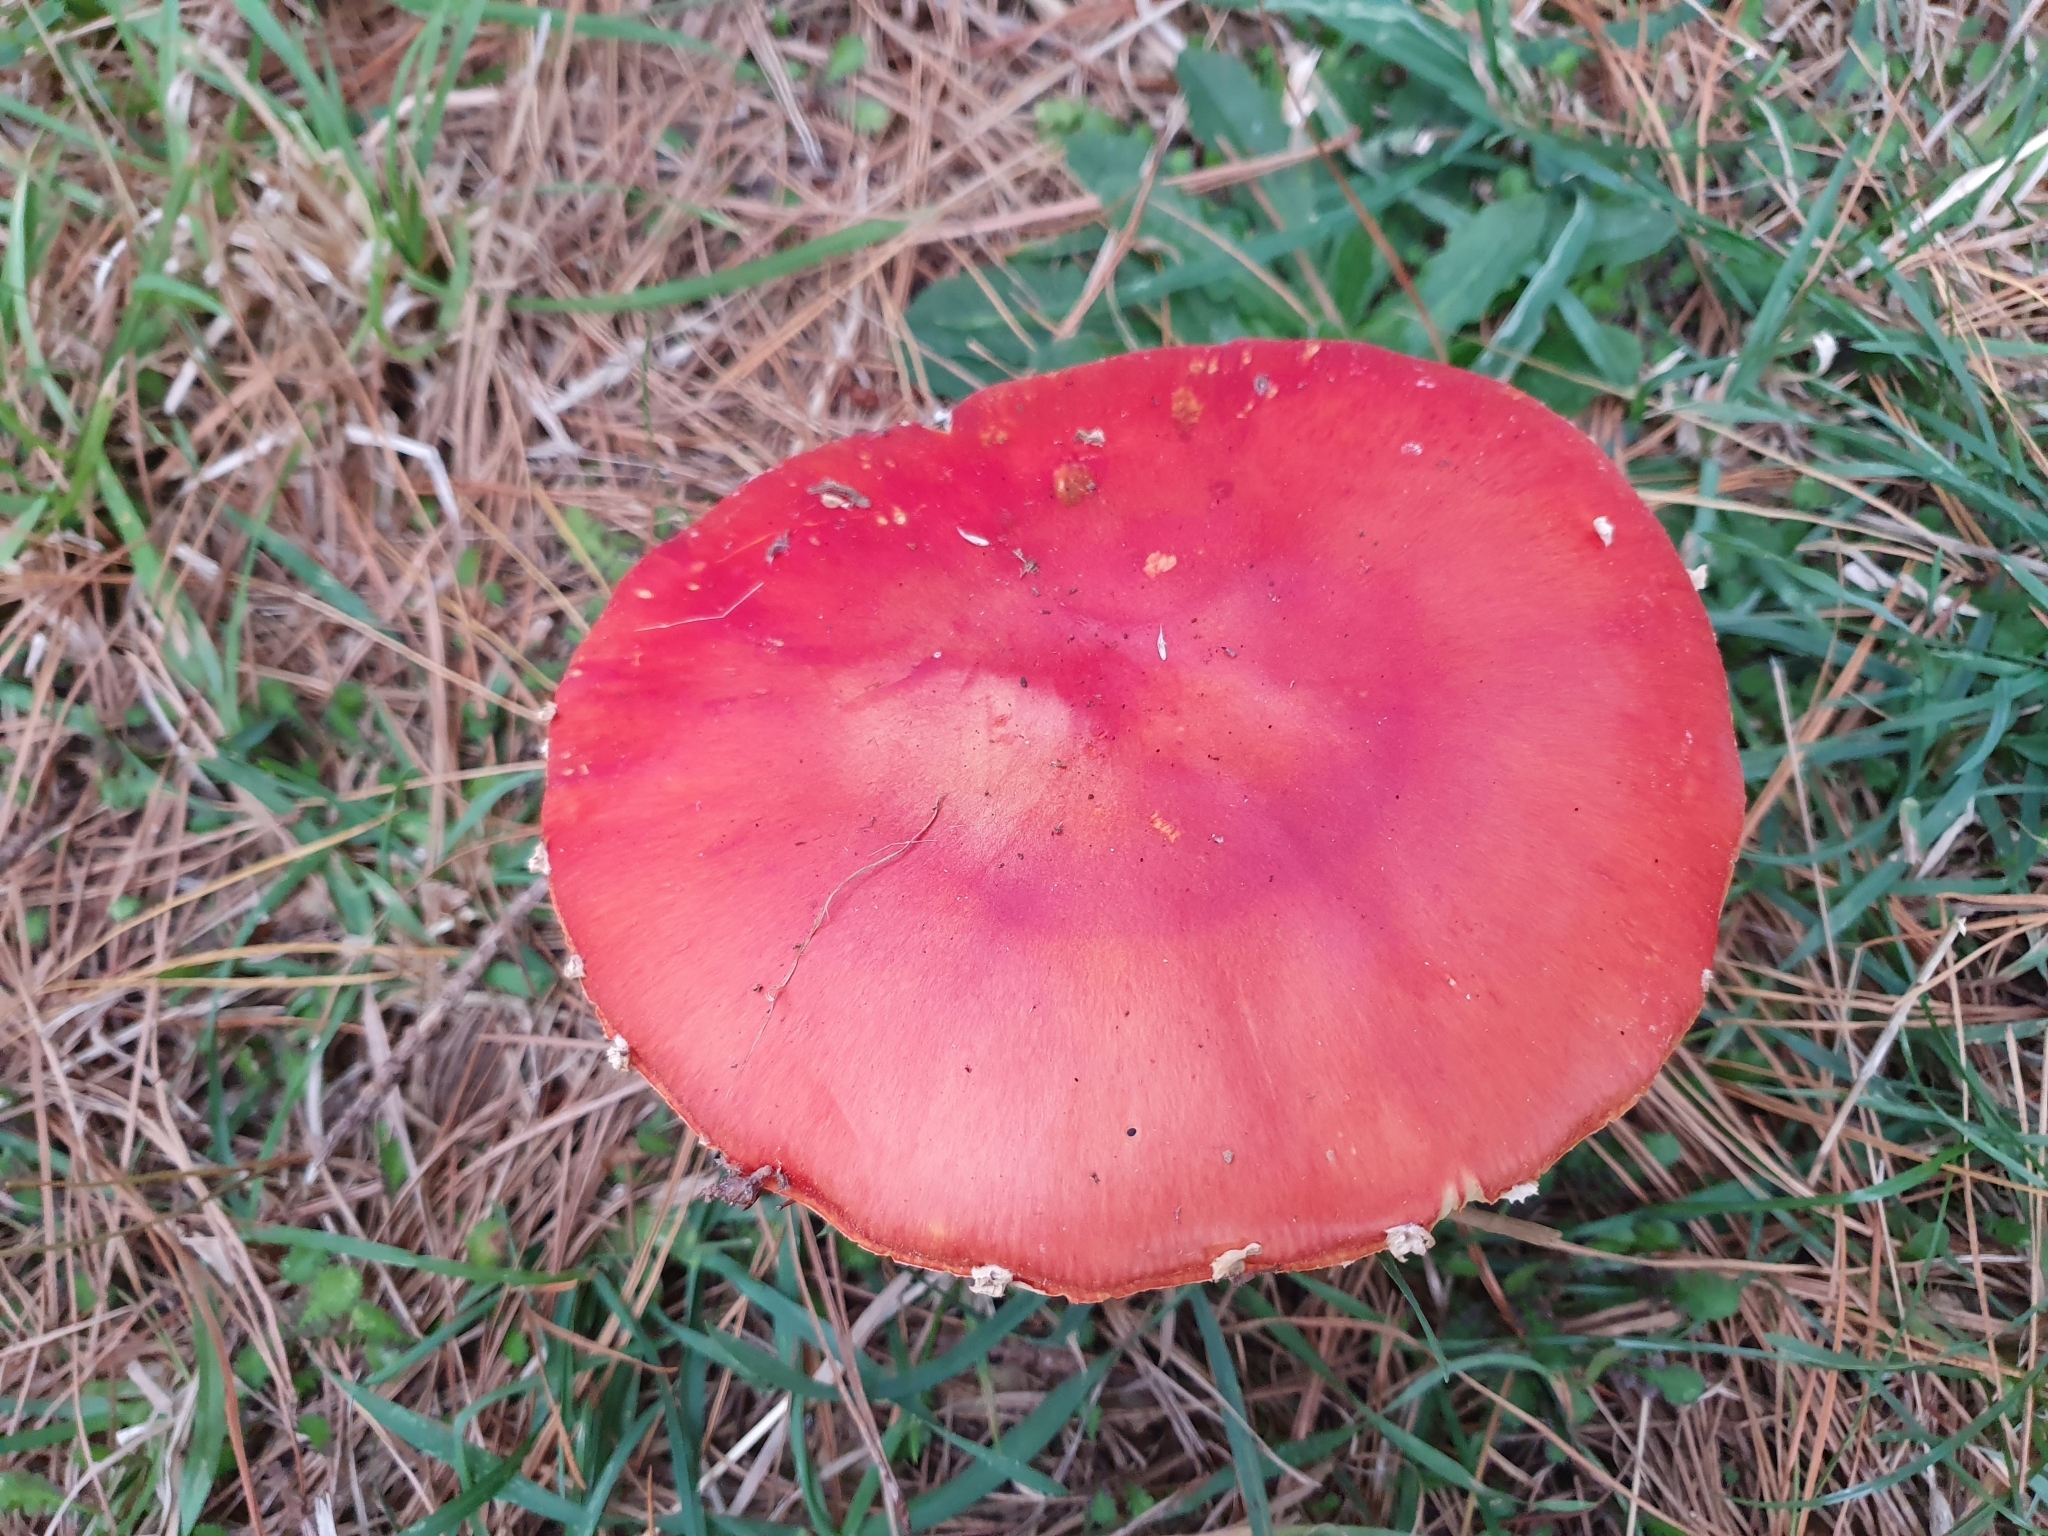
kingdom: Fungi
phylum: Basidiomycota
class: Agaricomycetes
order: Agaricales
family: Amanitaceae
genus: Amanita
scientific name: Amanita muscaria
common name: Fly agaric
